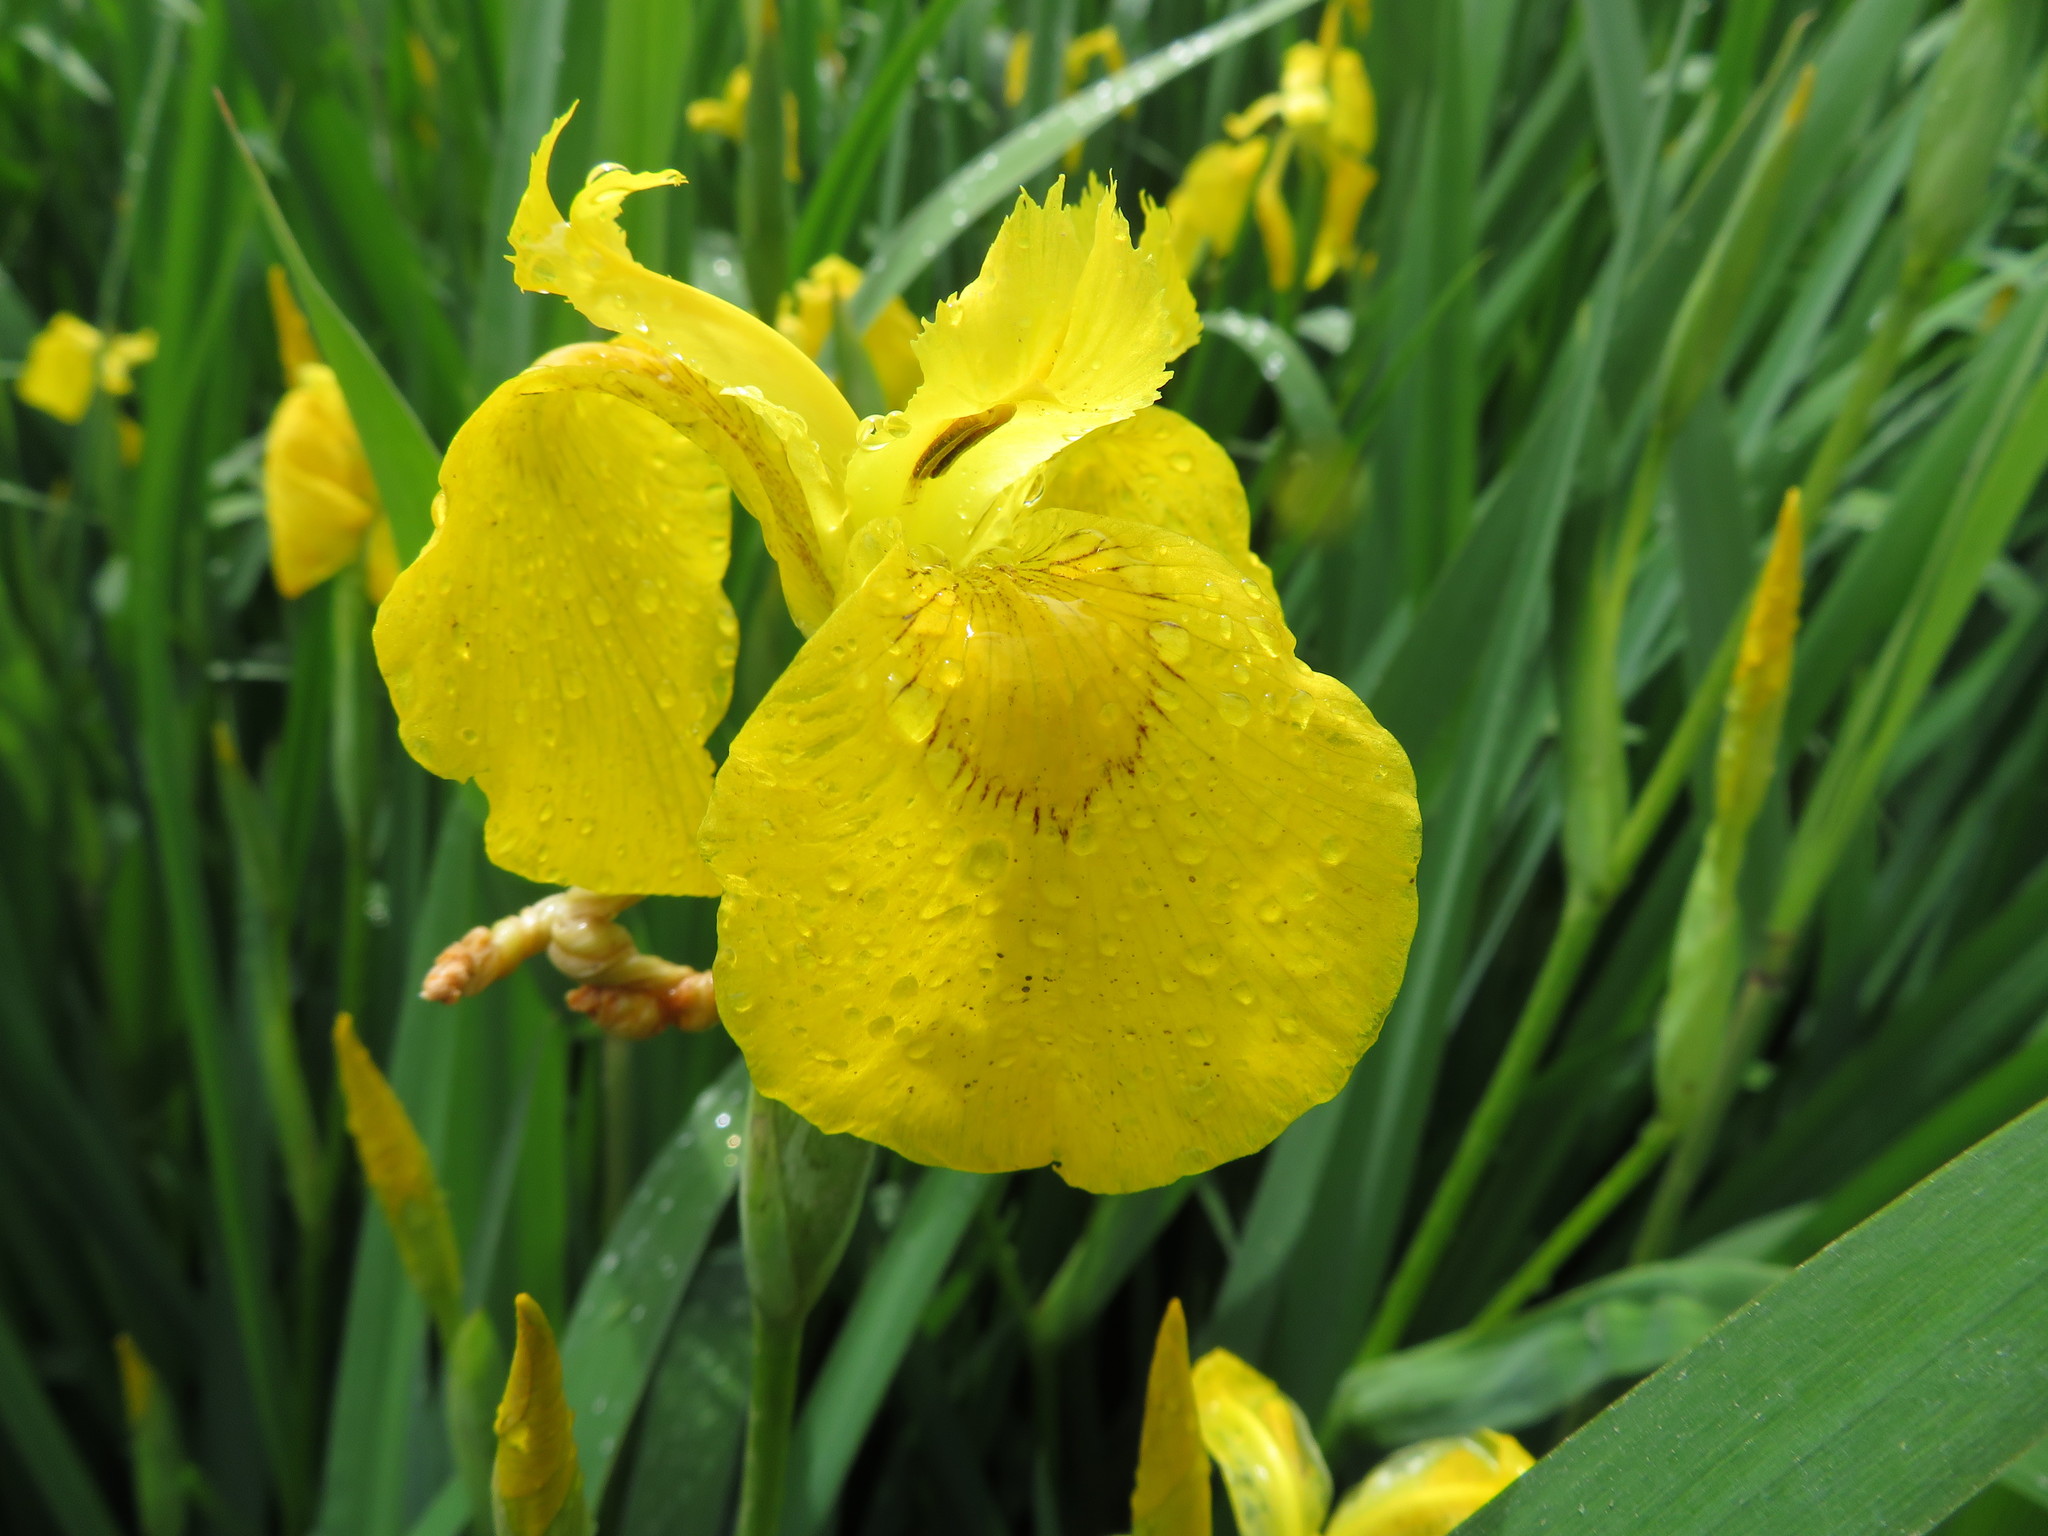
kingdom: Plantae
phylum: Tracheophyta
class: Liliopsida
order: Asparagales
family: Iridaceae
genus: Iris
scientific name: Iris pseudacorus
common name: Yellow flag
